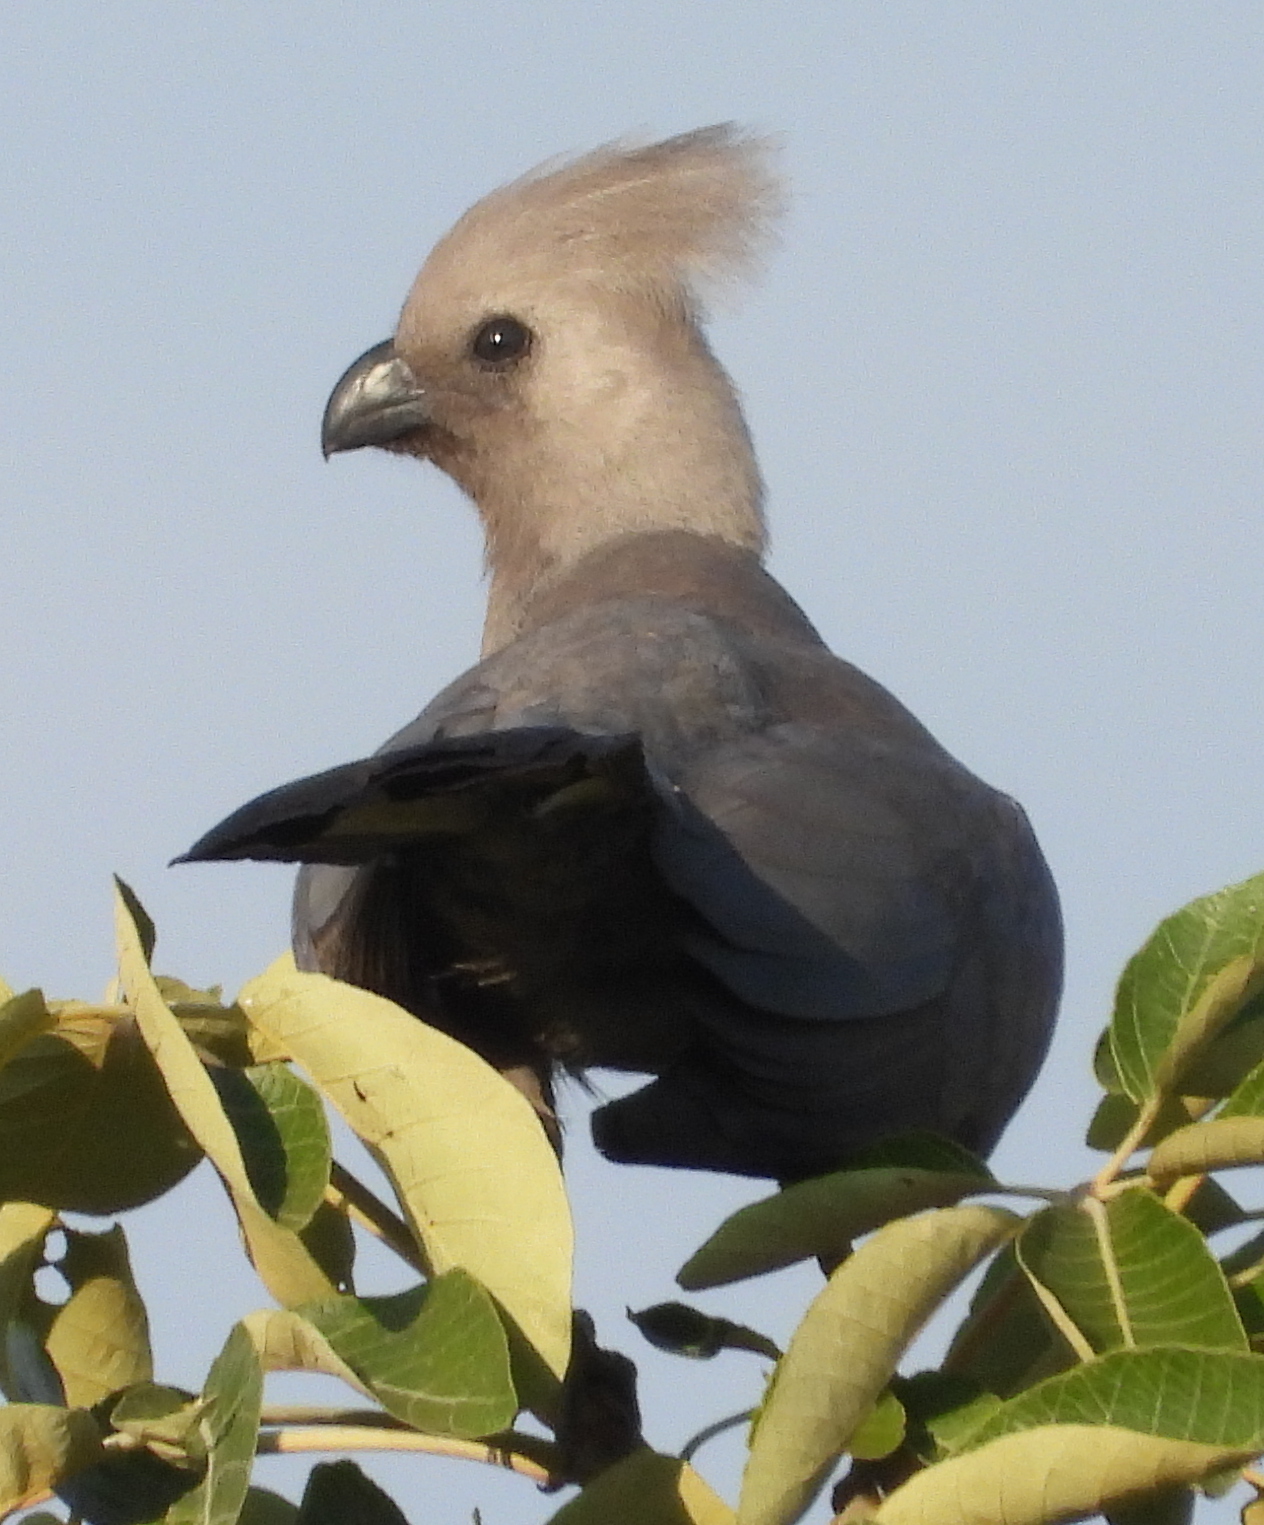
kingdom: Animalia
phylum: Chordata
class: Aves
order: Musophagiformes
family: Musophagidae
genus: Corythaixoides
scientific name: Corythaixoides concolor
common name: Grey go-away-bird
